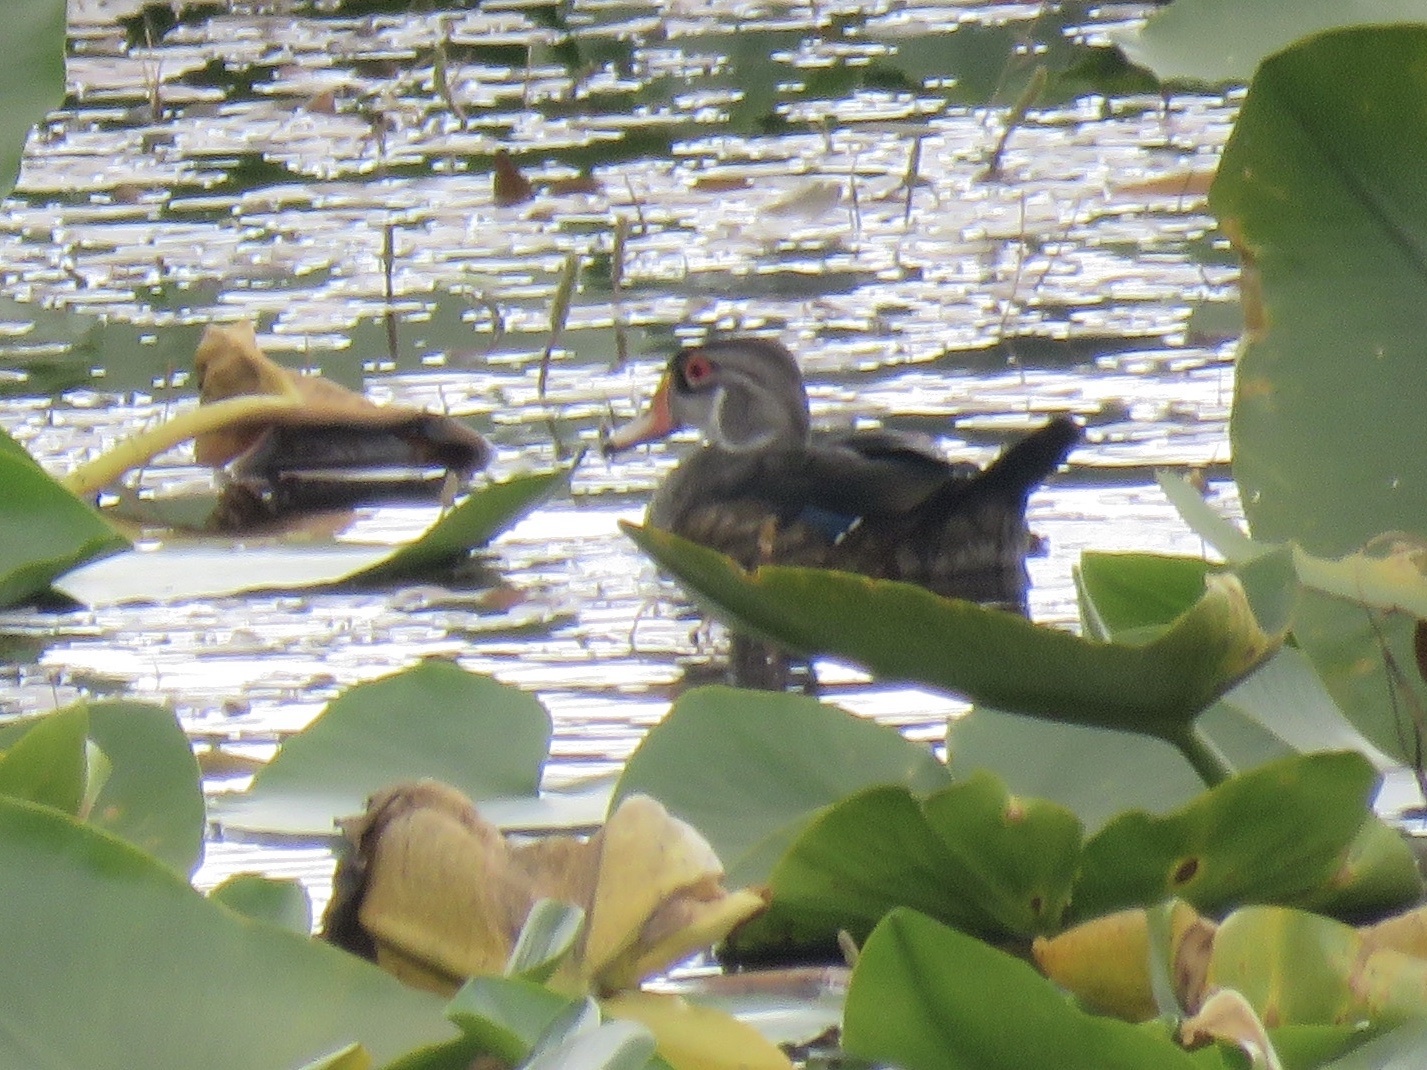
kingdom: Animalia
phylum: Chordata
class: Aves
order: Anseriformes
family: Anatidae
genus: Aix
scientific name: Aix sponsa
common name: Wood duck
